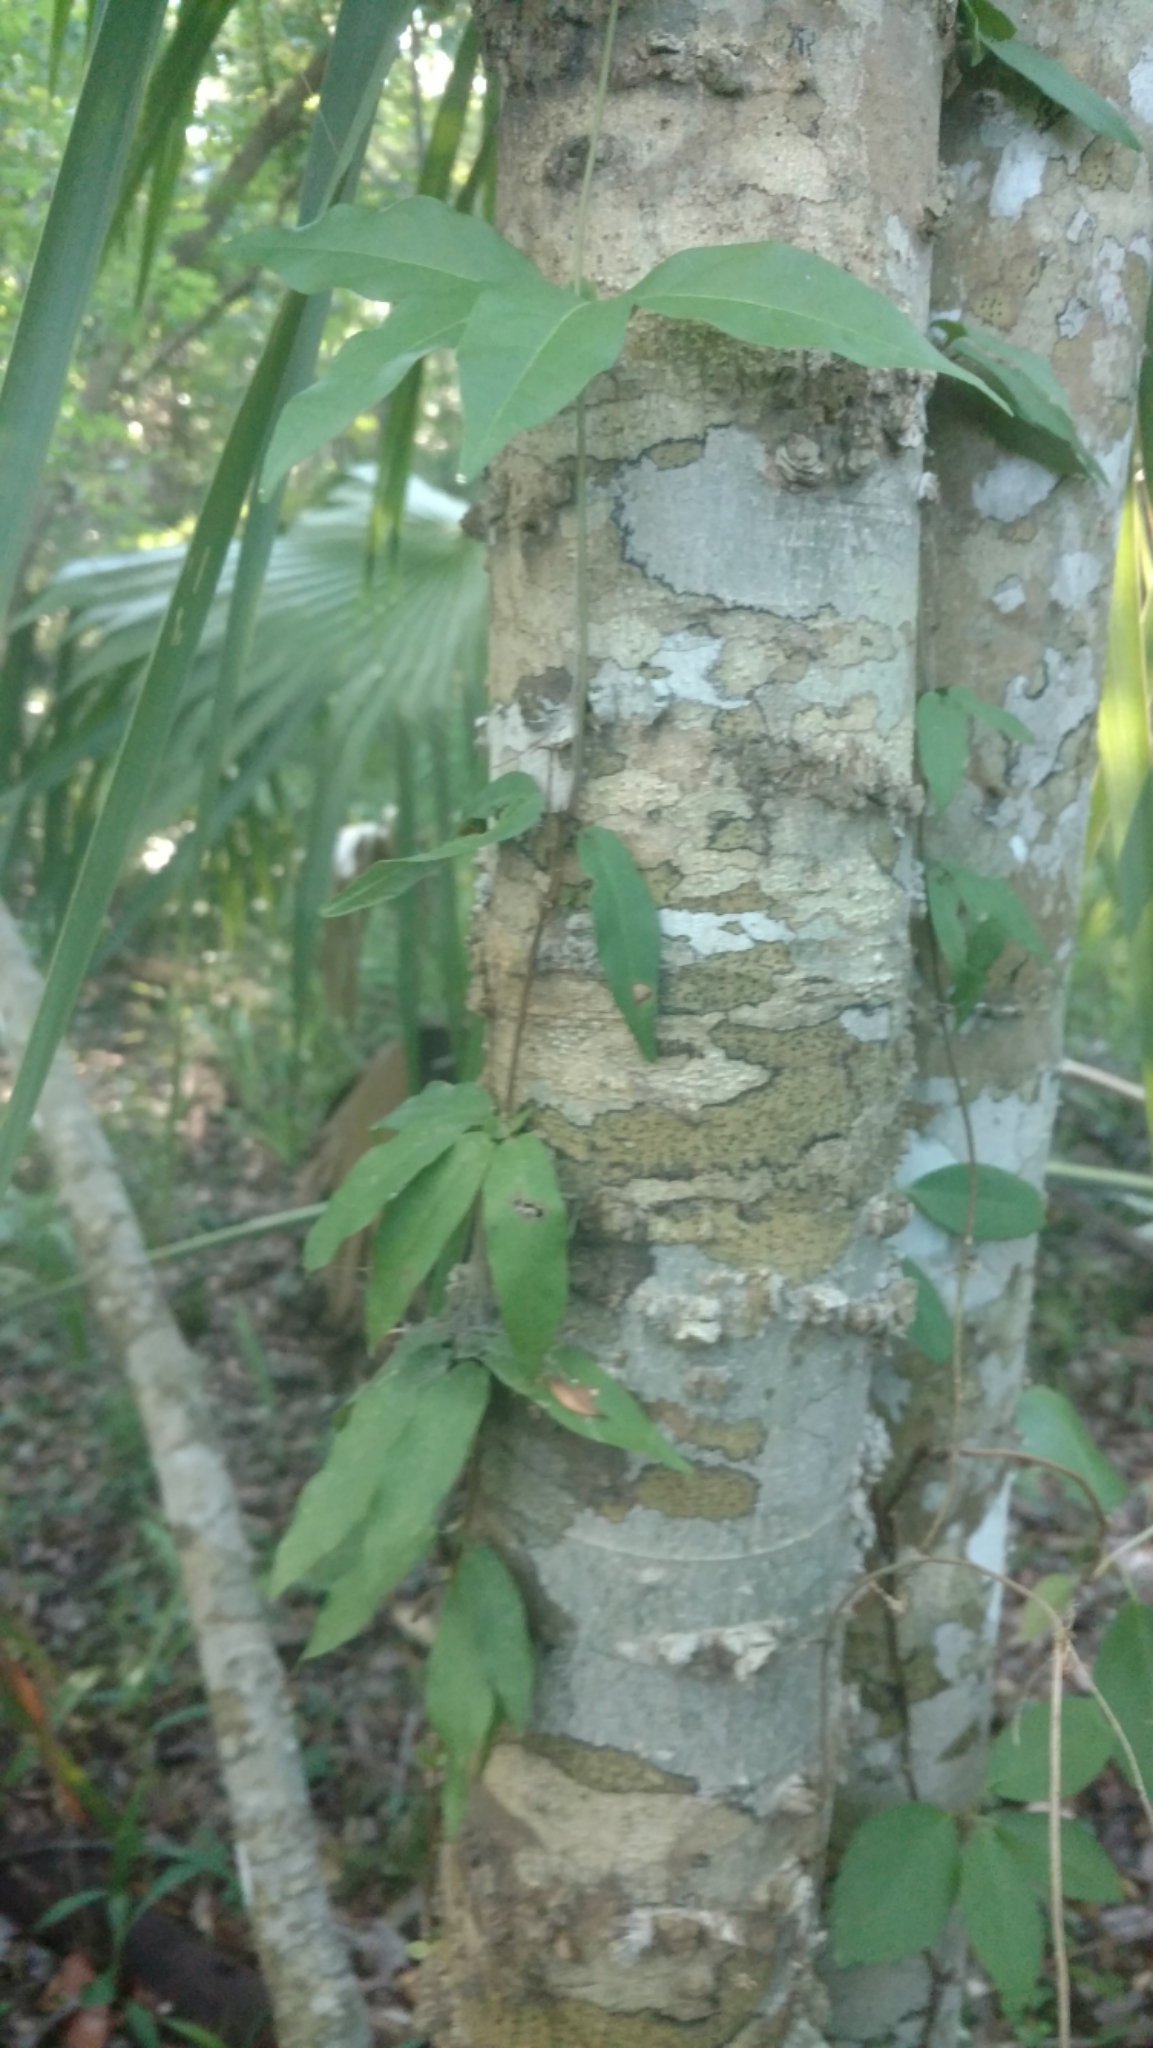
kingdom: Plantae
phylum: Tracheophyta
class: Magnoliopsida
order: Lamiales
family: Bignoniaceae
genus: Bignonia
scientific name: Bignonia capreolata
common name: Crossvine
